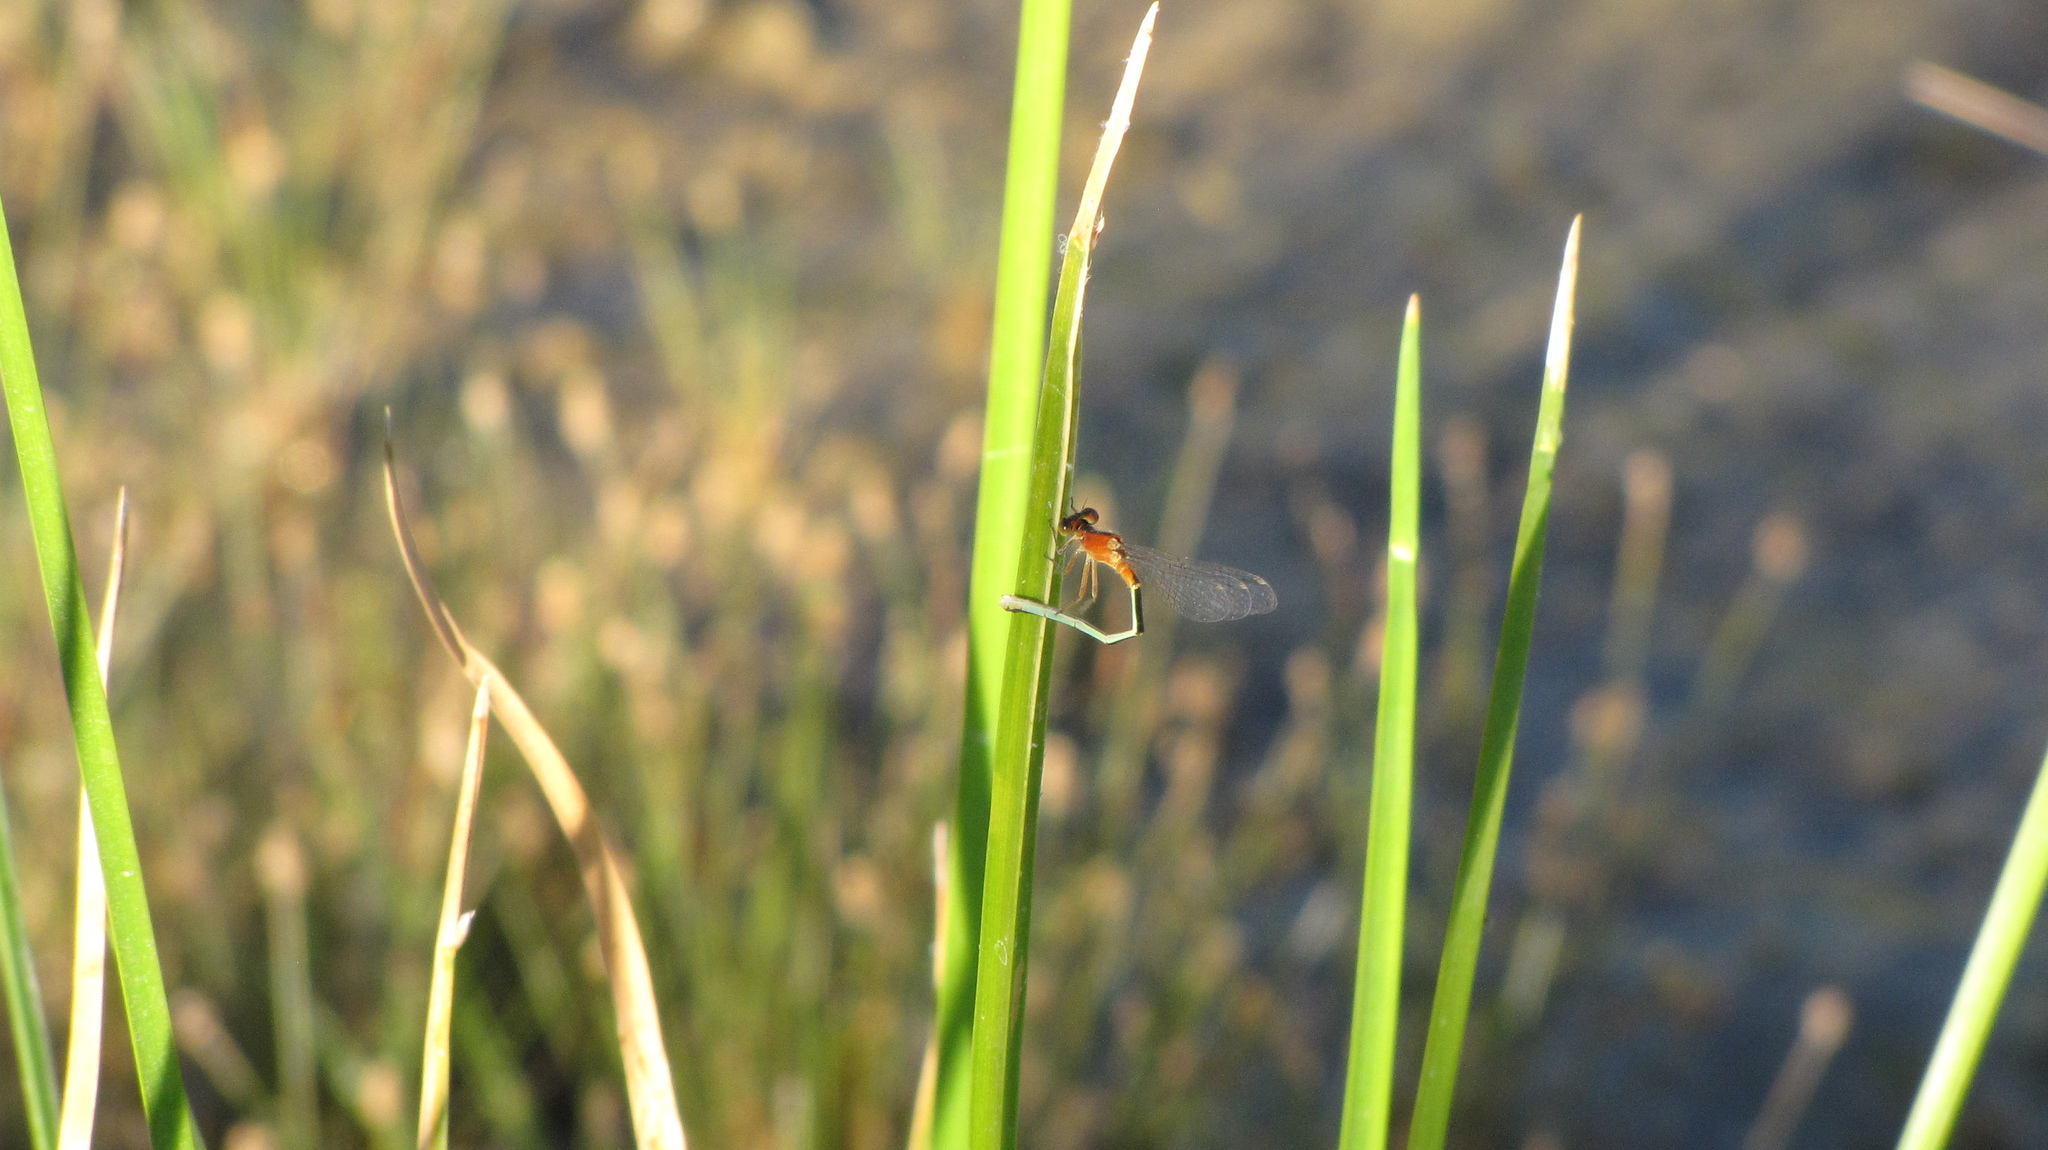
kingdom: Animalia
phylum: Arthropoda
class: Insecta
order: Odonata
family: Coenagrionidae
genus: Ischnura
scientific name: Ischnura ramburii
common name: Rambur's forktail
